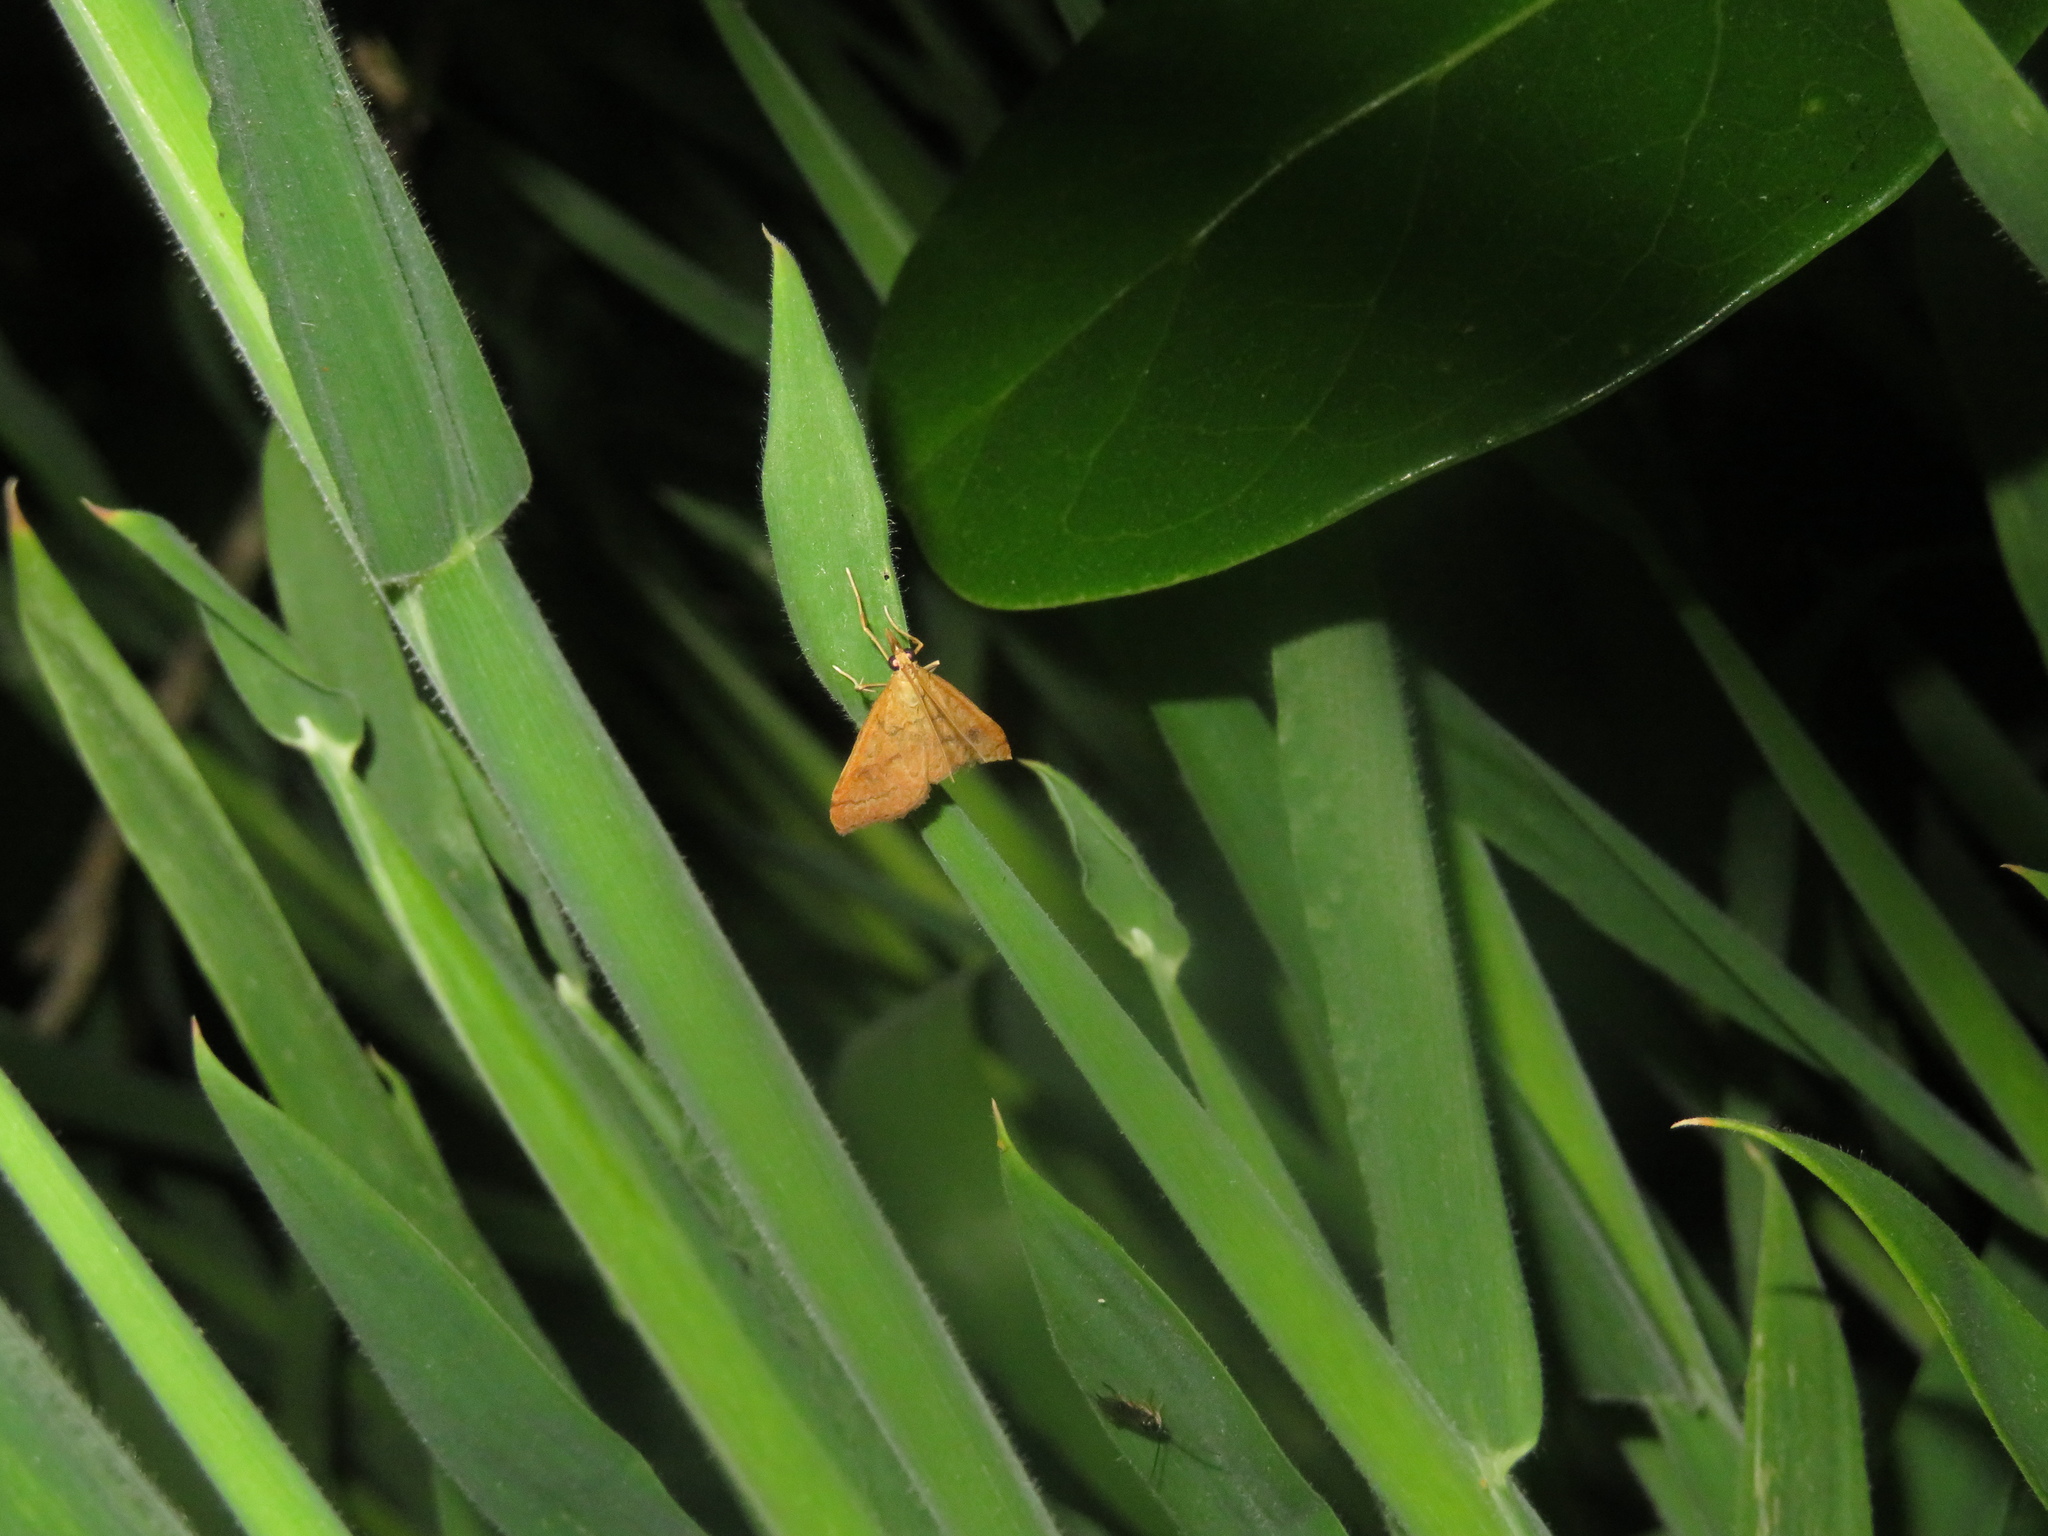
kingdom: Animalia
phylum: Arthropoda
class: Insecta
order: Lepidoptera
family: Crambidae
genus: Udea
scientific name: Udea Mnesictena flavidalis
